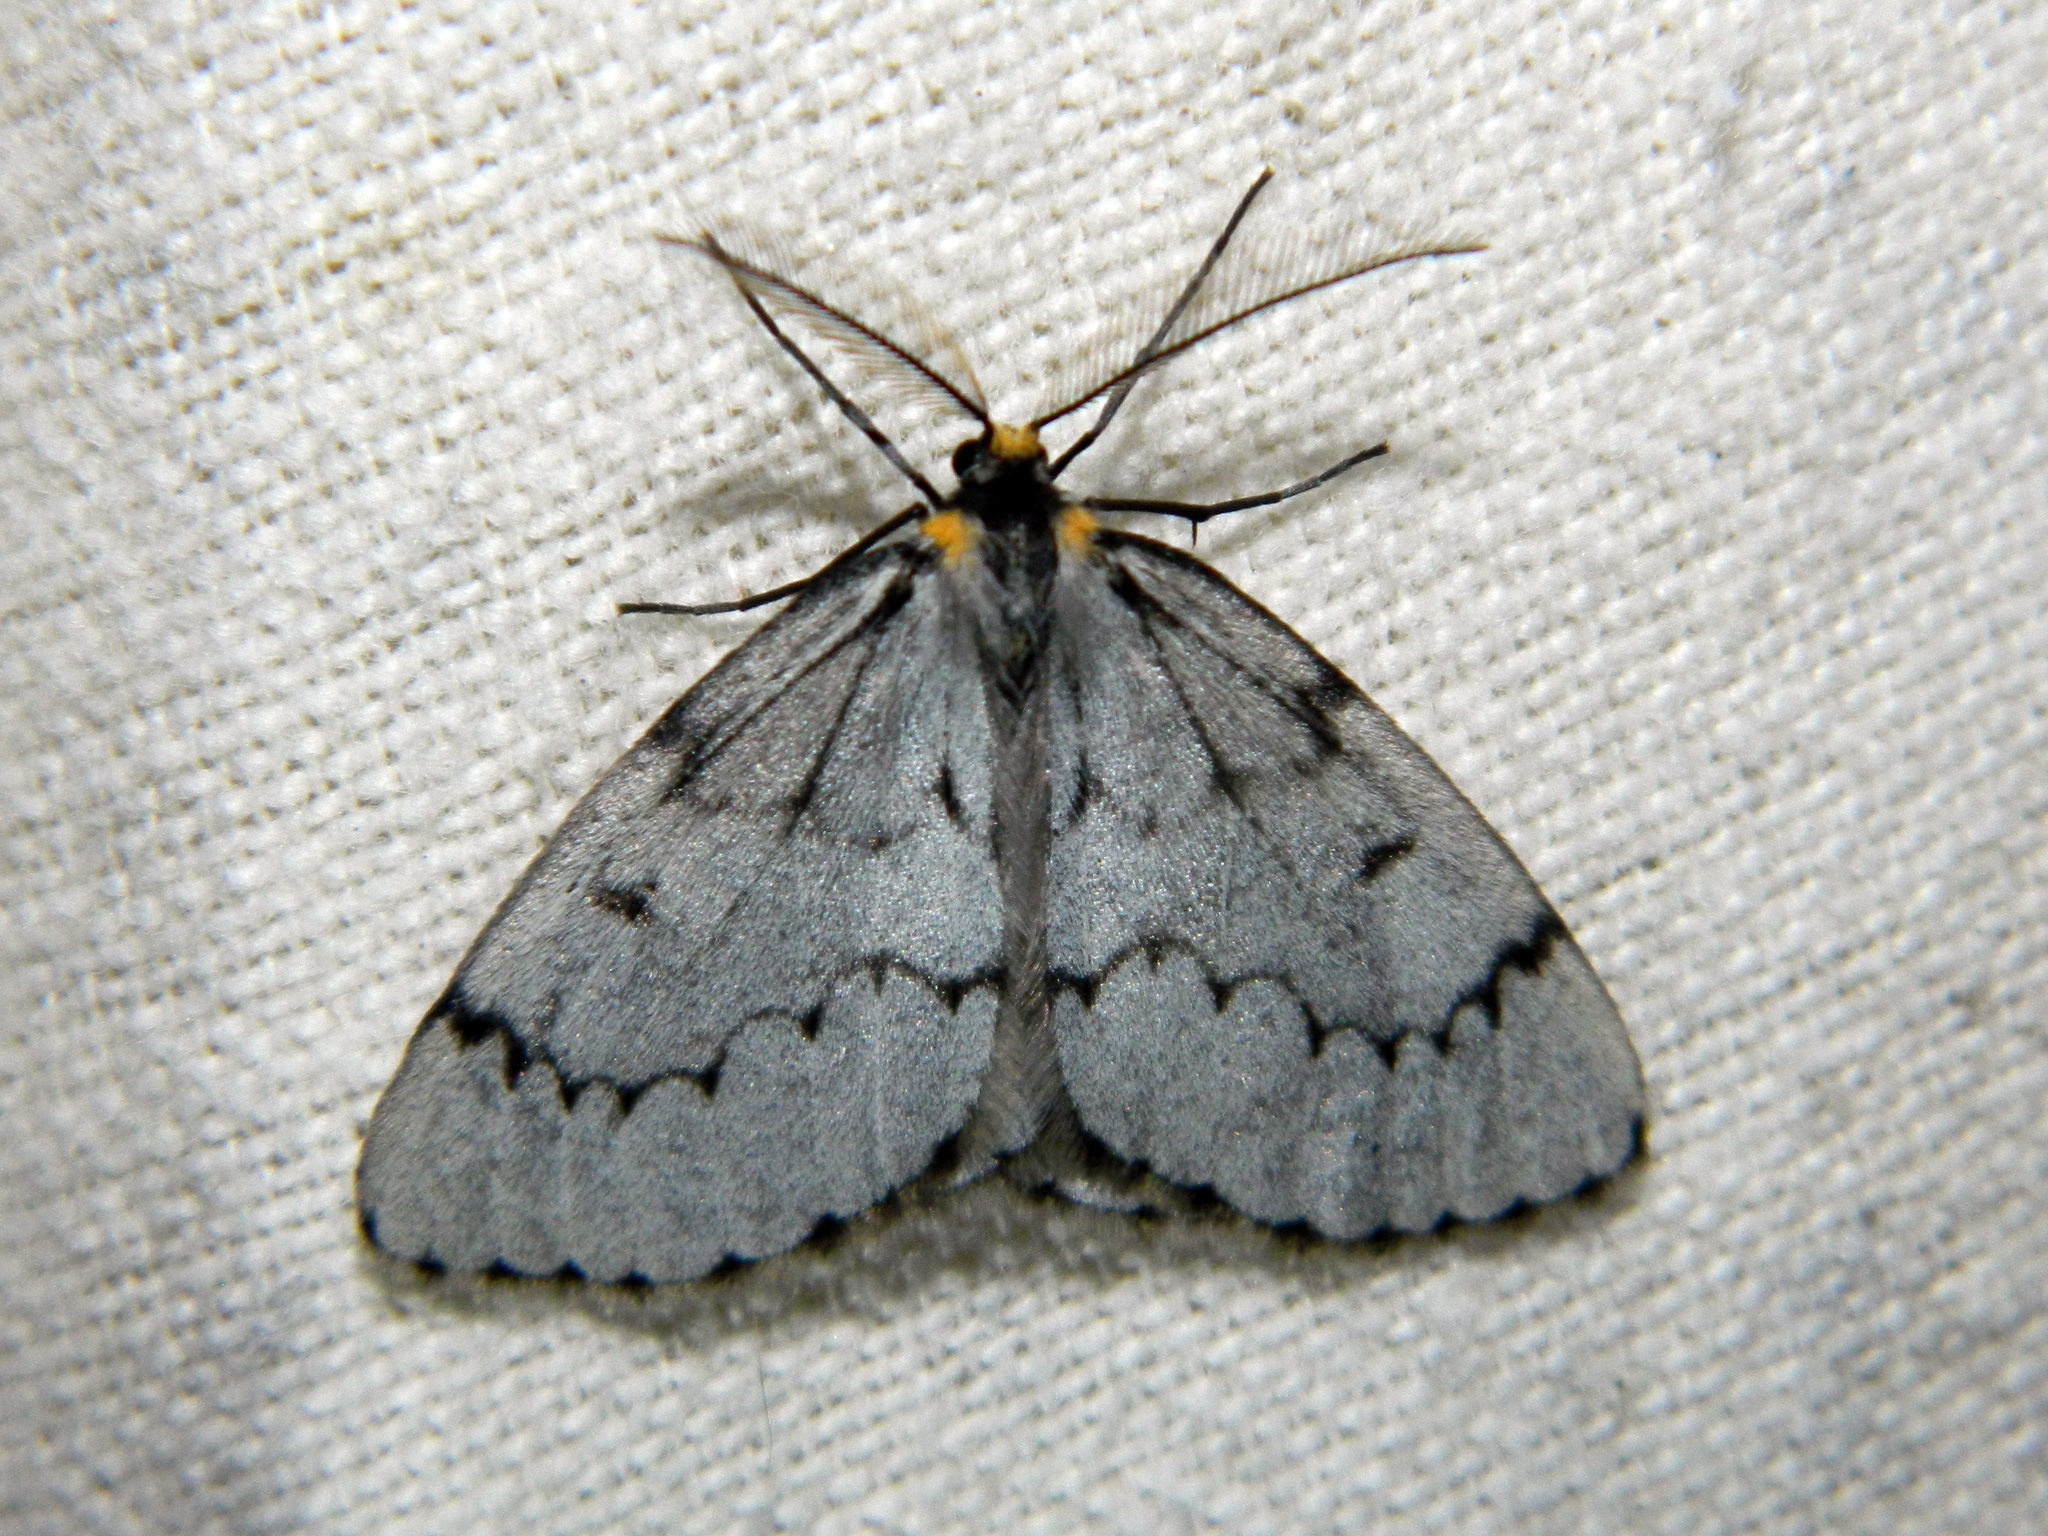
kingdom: Animalia
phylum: Arthropoda
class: Insecta
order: Lepidoptera
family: Geometridae
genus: Cingilia
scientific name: Cingilia catenaria
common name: Chain-dotted geometer
